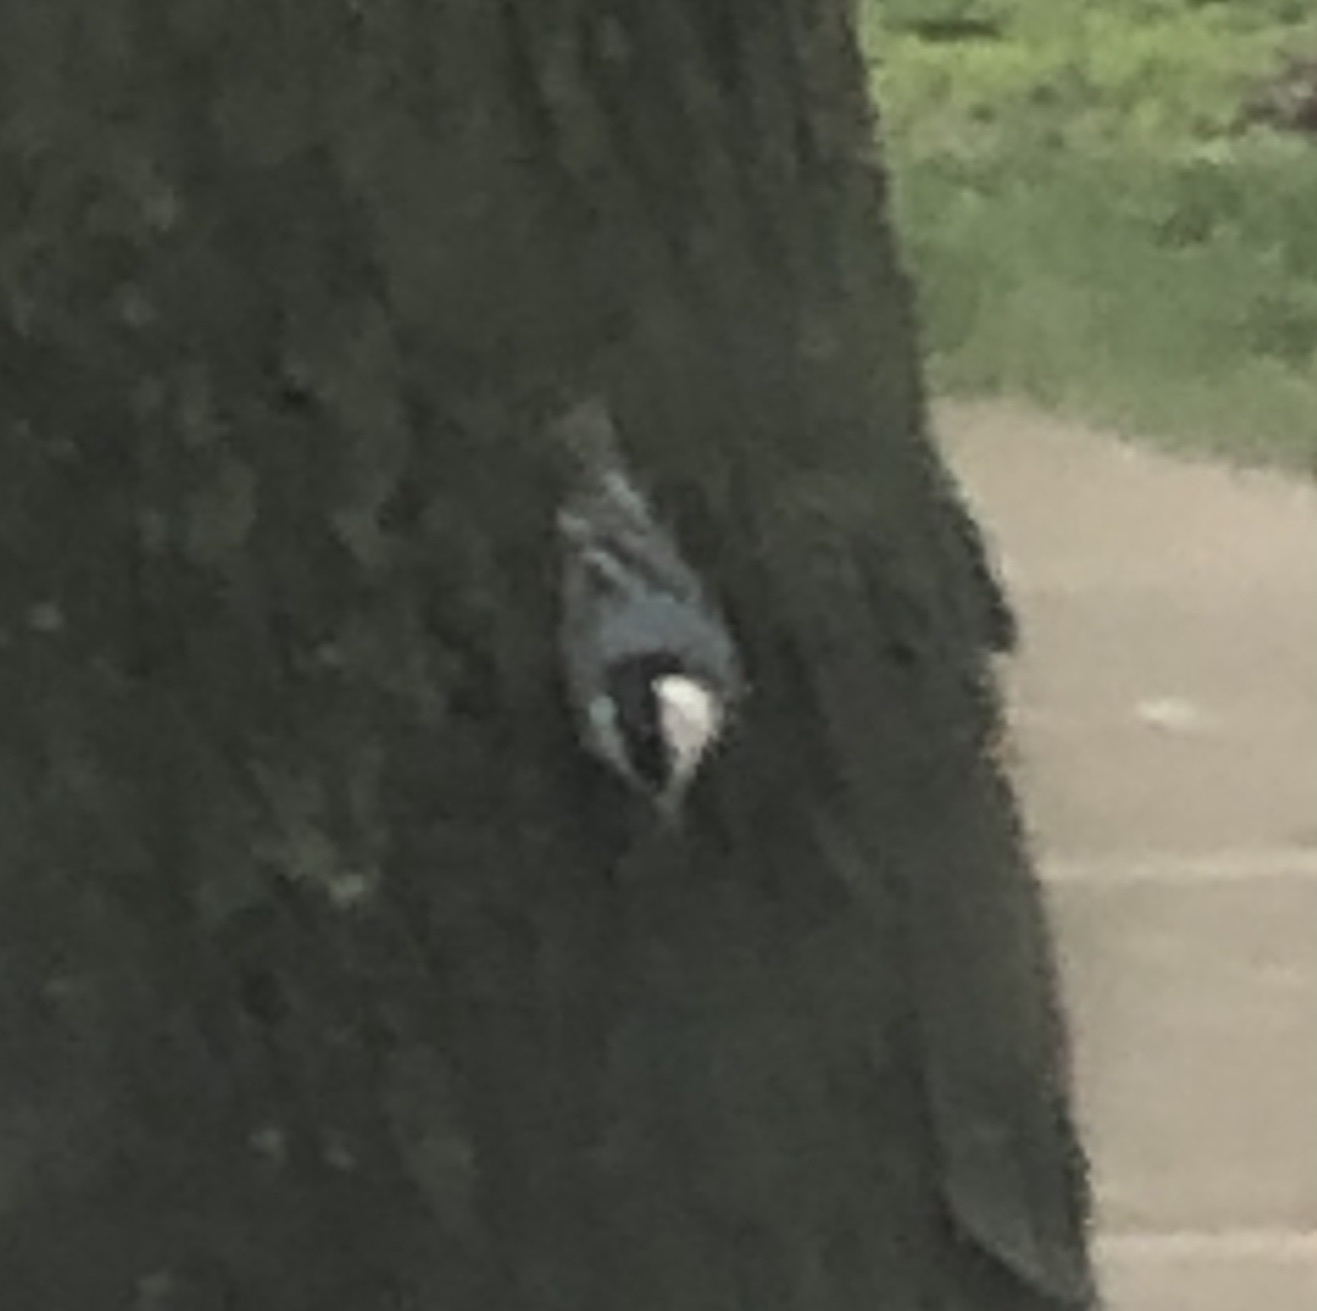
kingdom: Animalia
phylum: Chordata
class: Aves
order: Passeriformes
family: Sittidae
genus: Sitta
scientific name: Sitta carolinensis
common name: White-breasted nuthatch
